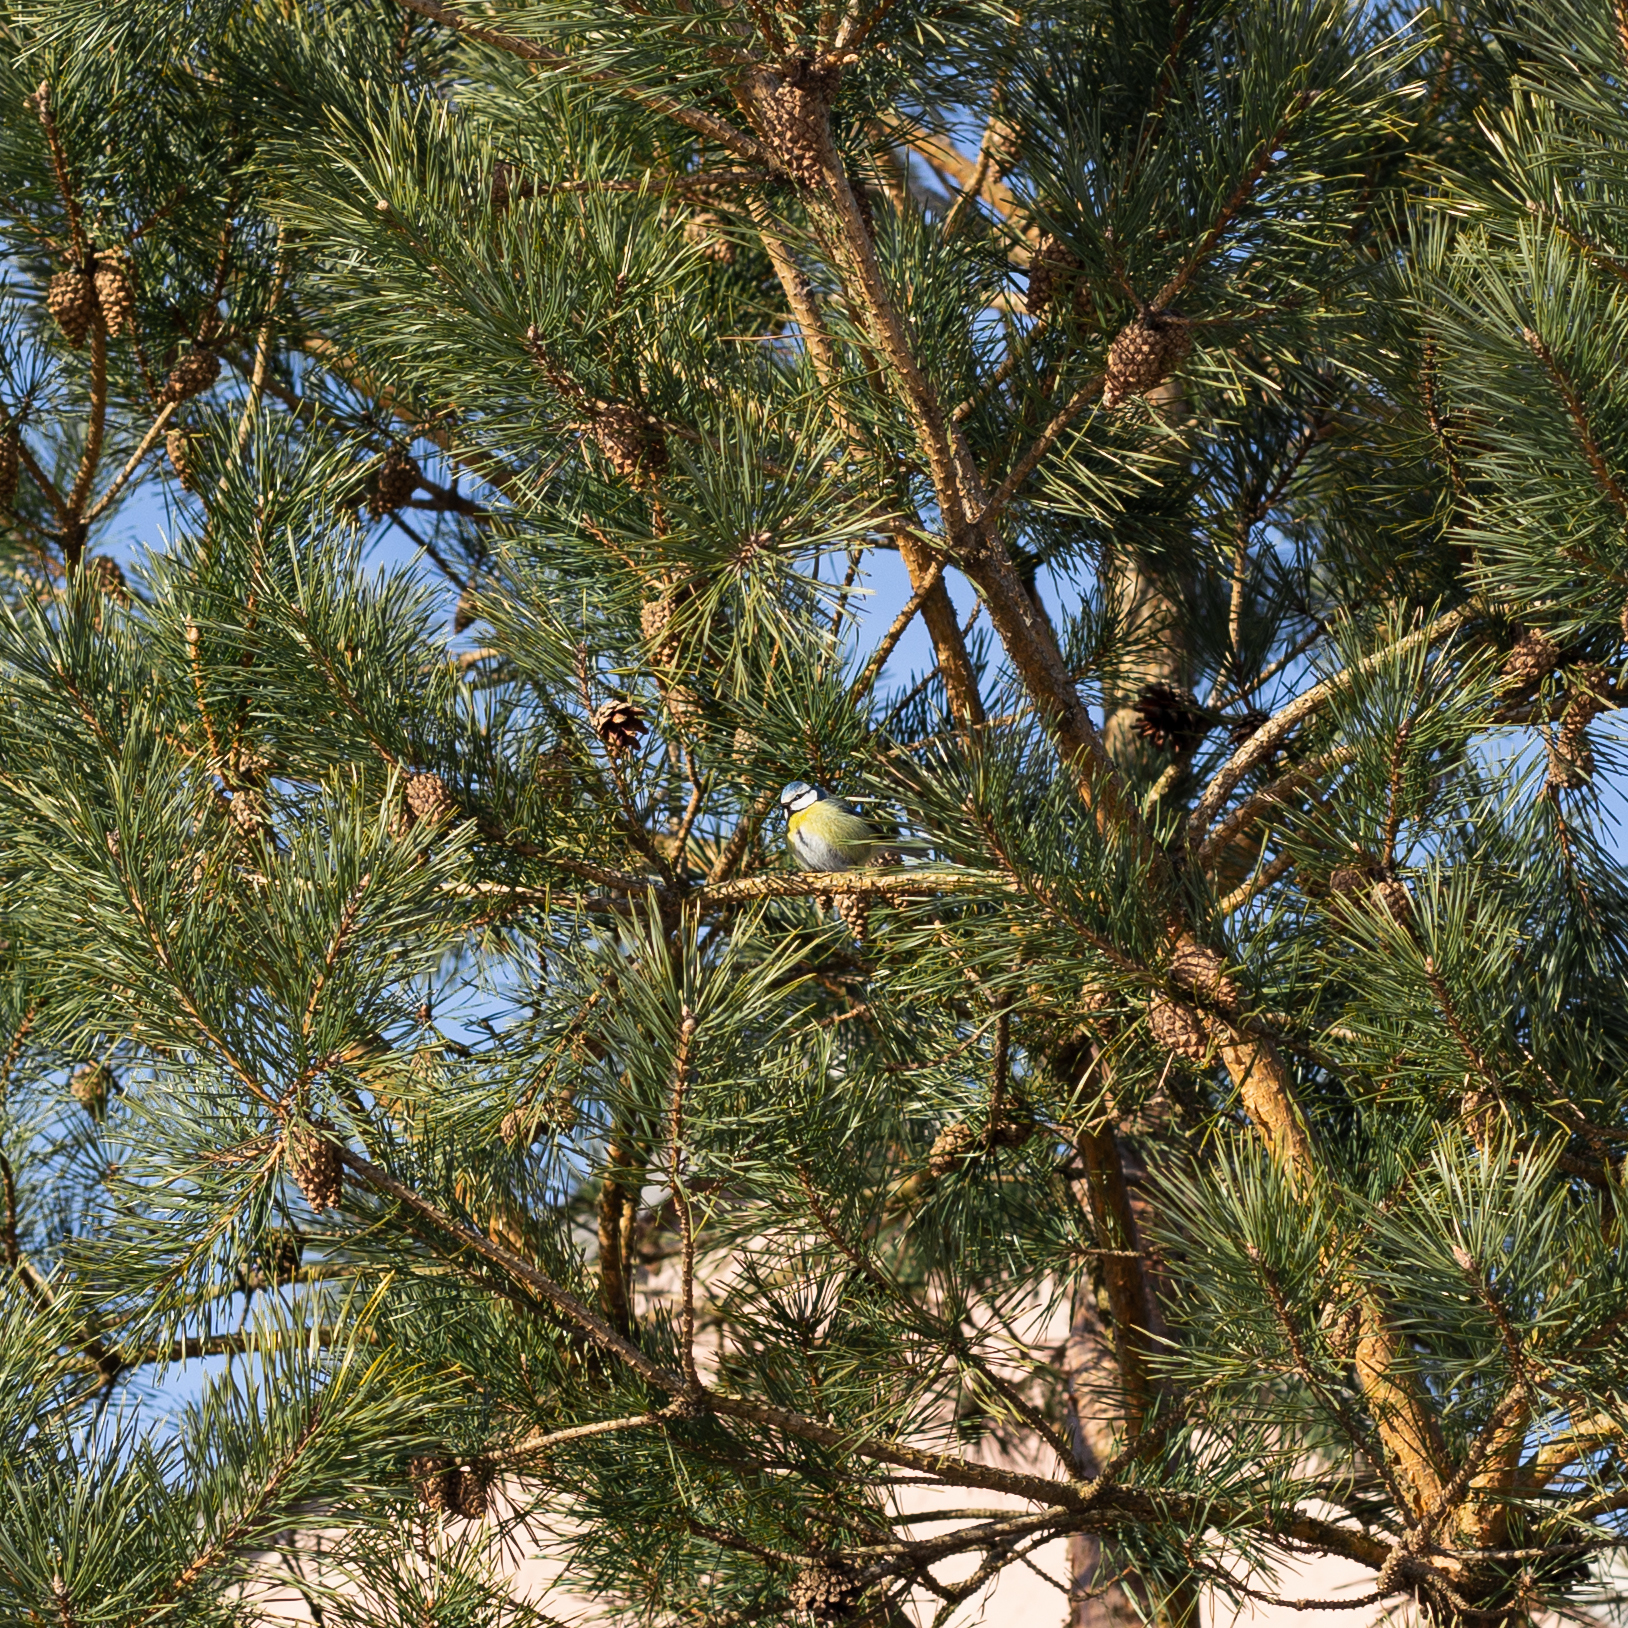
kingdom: Animalia
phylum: Chordata
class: Aves
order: Passeriformes
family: Paridae
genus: Cyanistes
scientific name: Cyanistes caeruleus
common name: Eurasian blue tit
